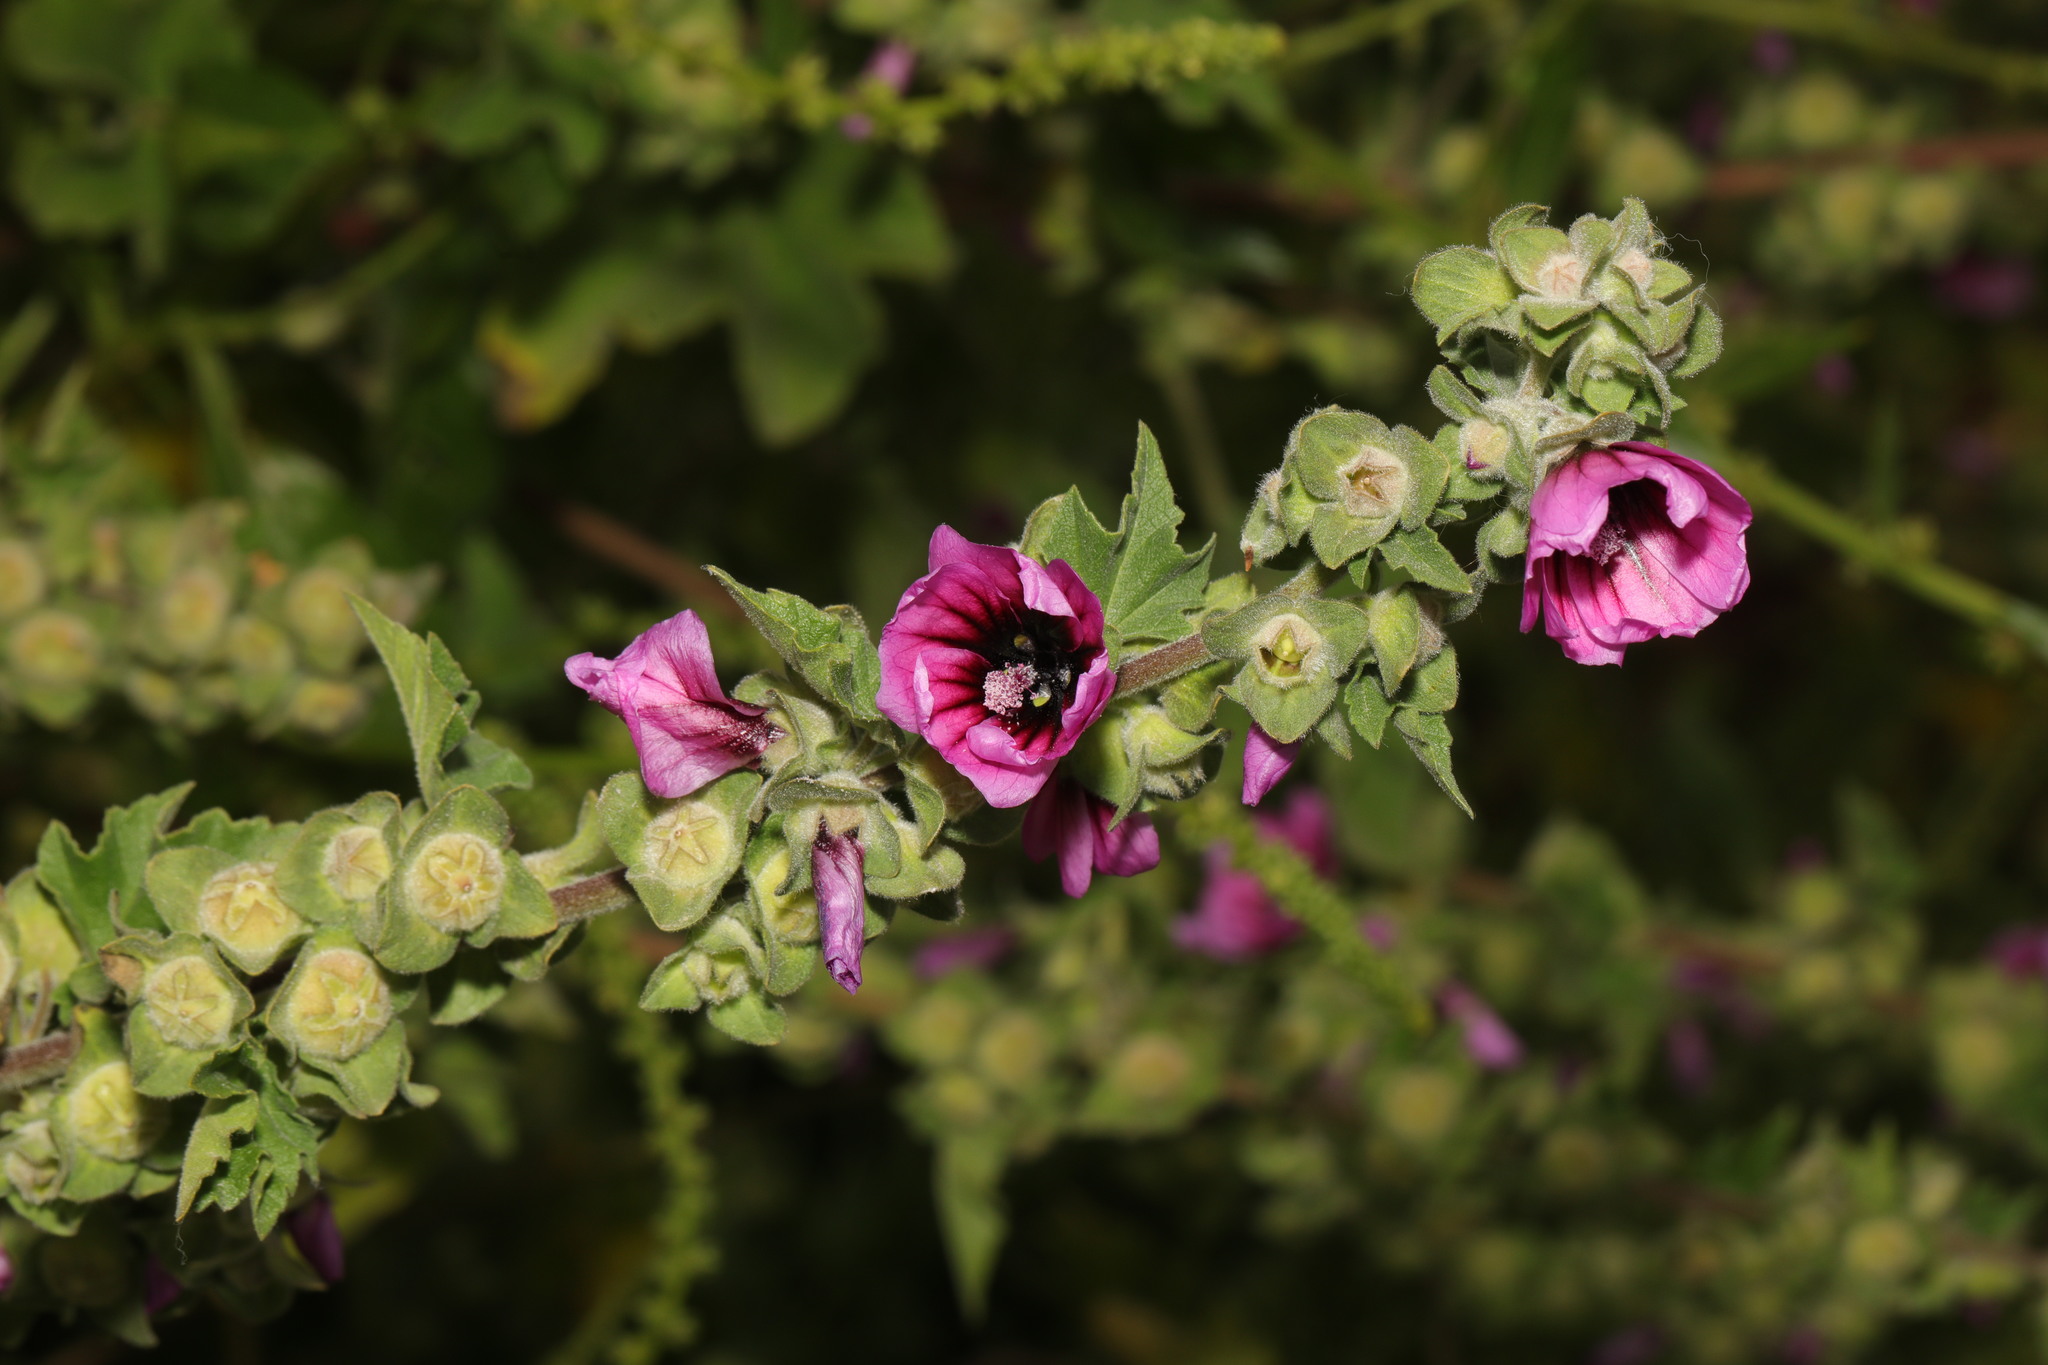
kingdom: Plantae
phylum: Tracheophyta
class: Magnoliopsida
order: Malvales
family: Malvaceae
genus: Malva
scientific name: Malva arborea
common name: Tree mallow
